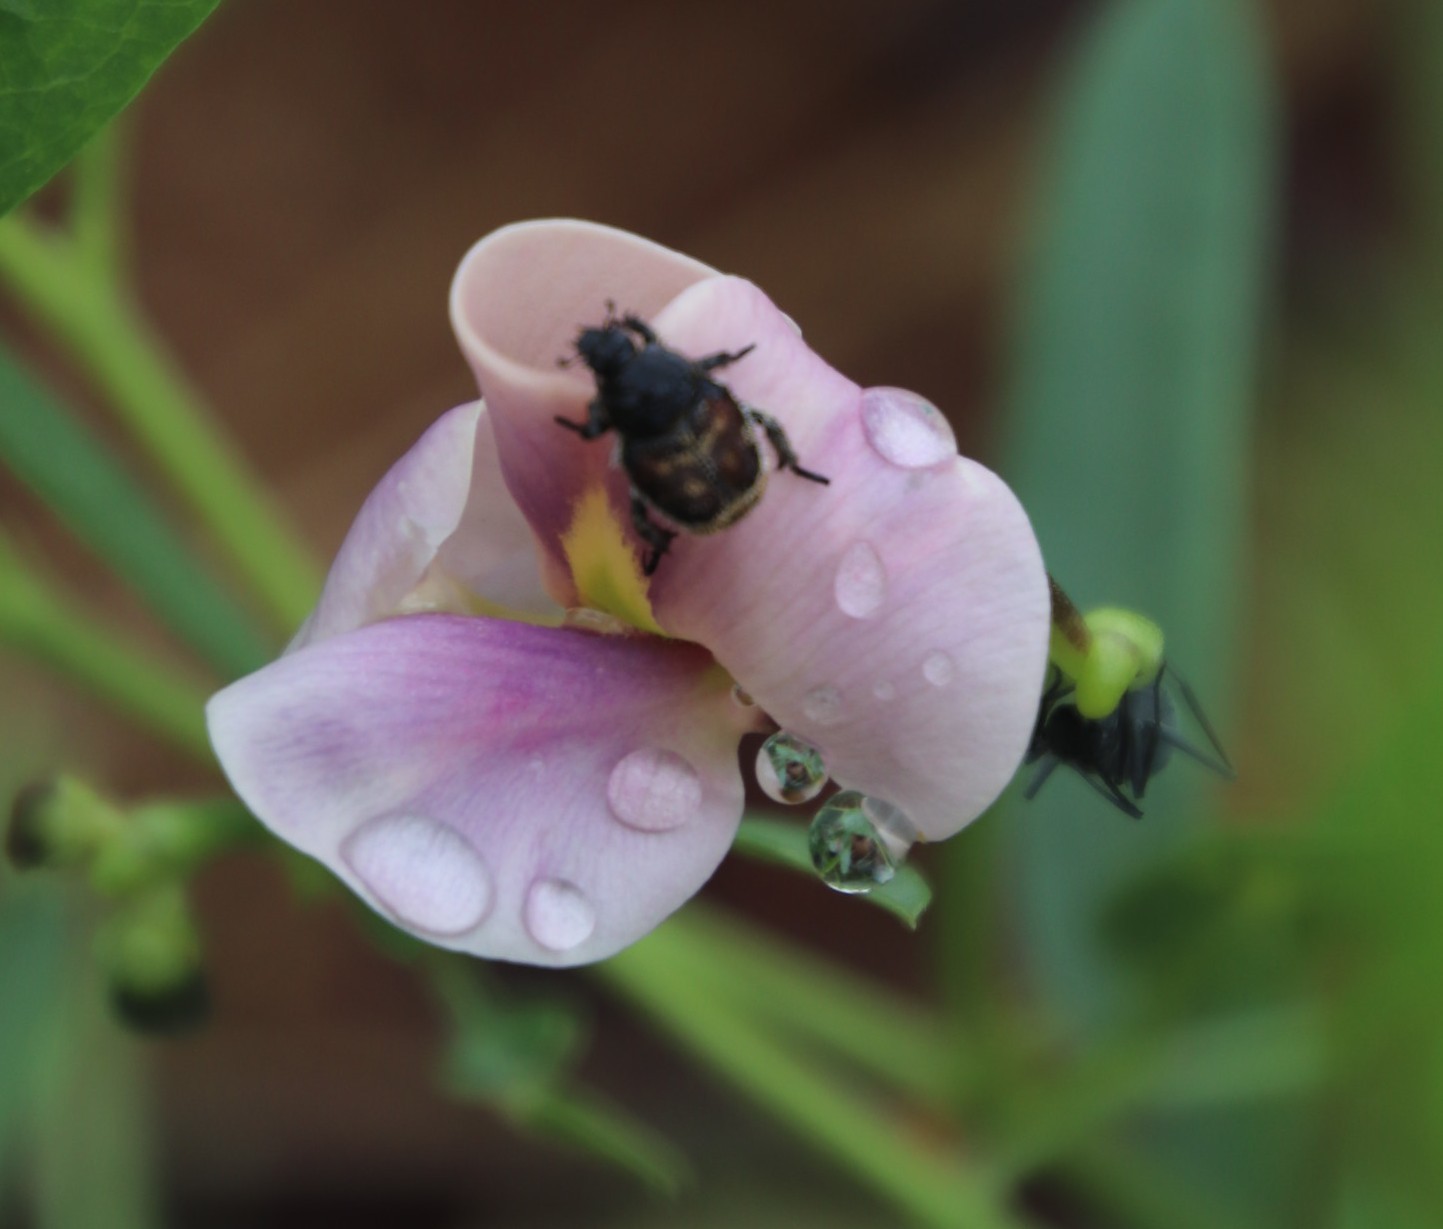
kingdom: Plantae
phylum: Tracheophyta
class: Magnoliopsida
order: Fabales
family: Fabaceae
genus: Sphenostylis
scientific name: Sphenostylis angustifolia
